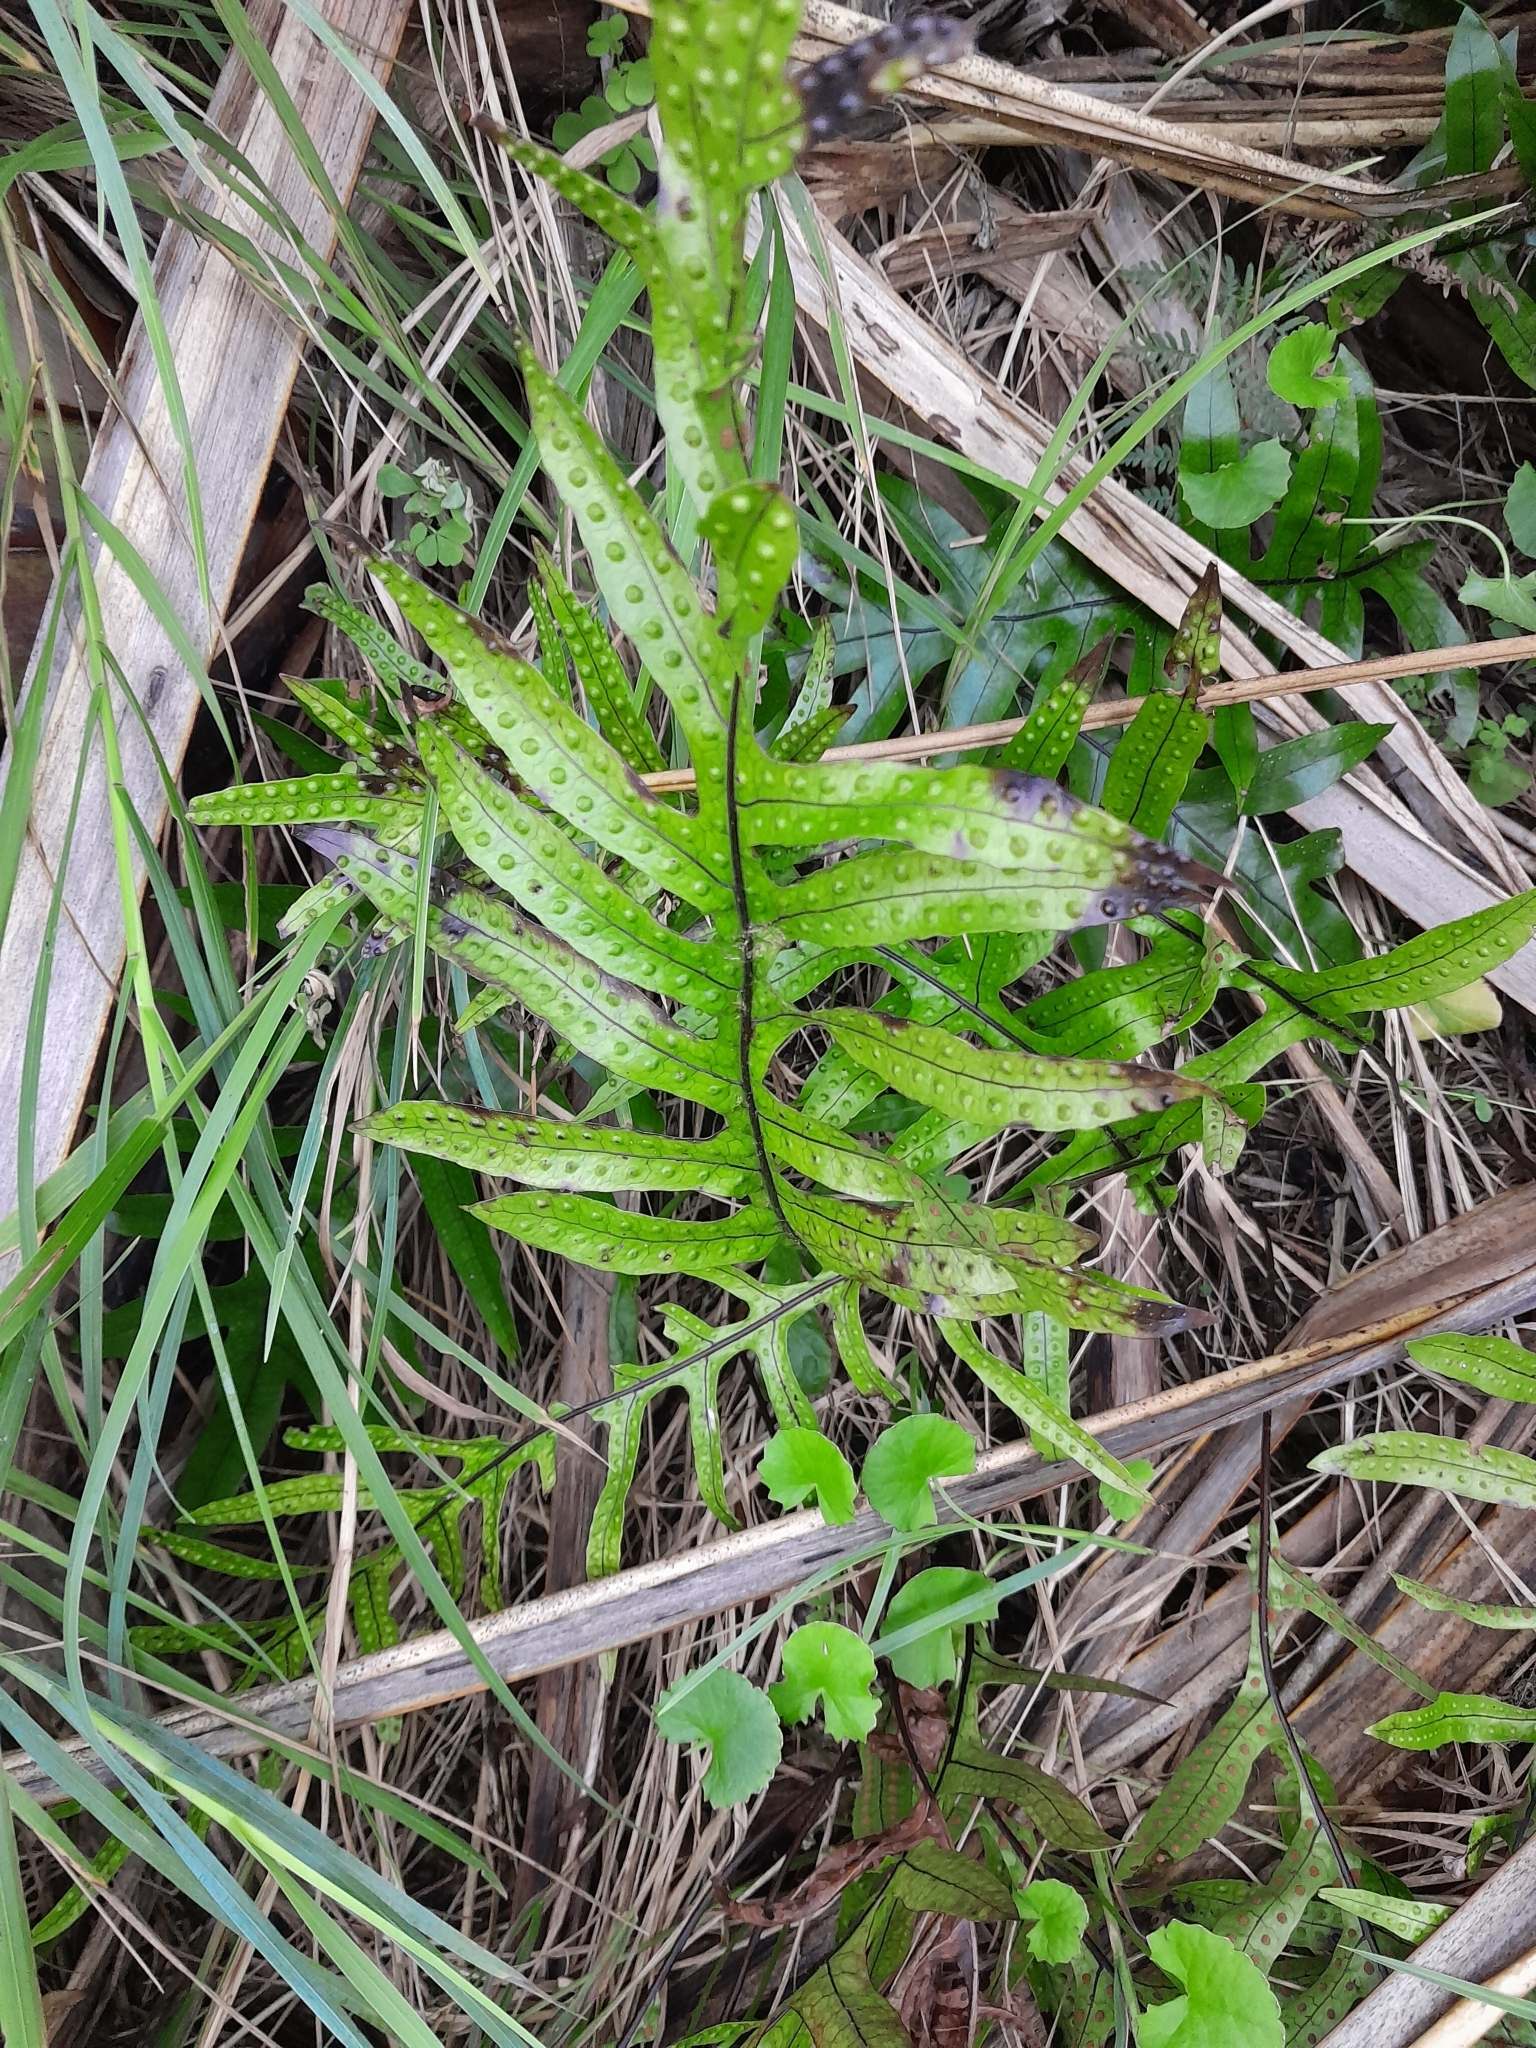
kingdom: Plantae
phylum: Tracheophyta
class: Polypodiopsida
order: Polypodiales
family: Polypodiaceae
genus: Lecanopteris
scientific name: Lecanopteris pustulata
